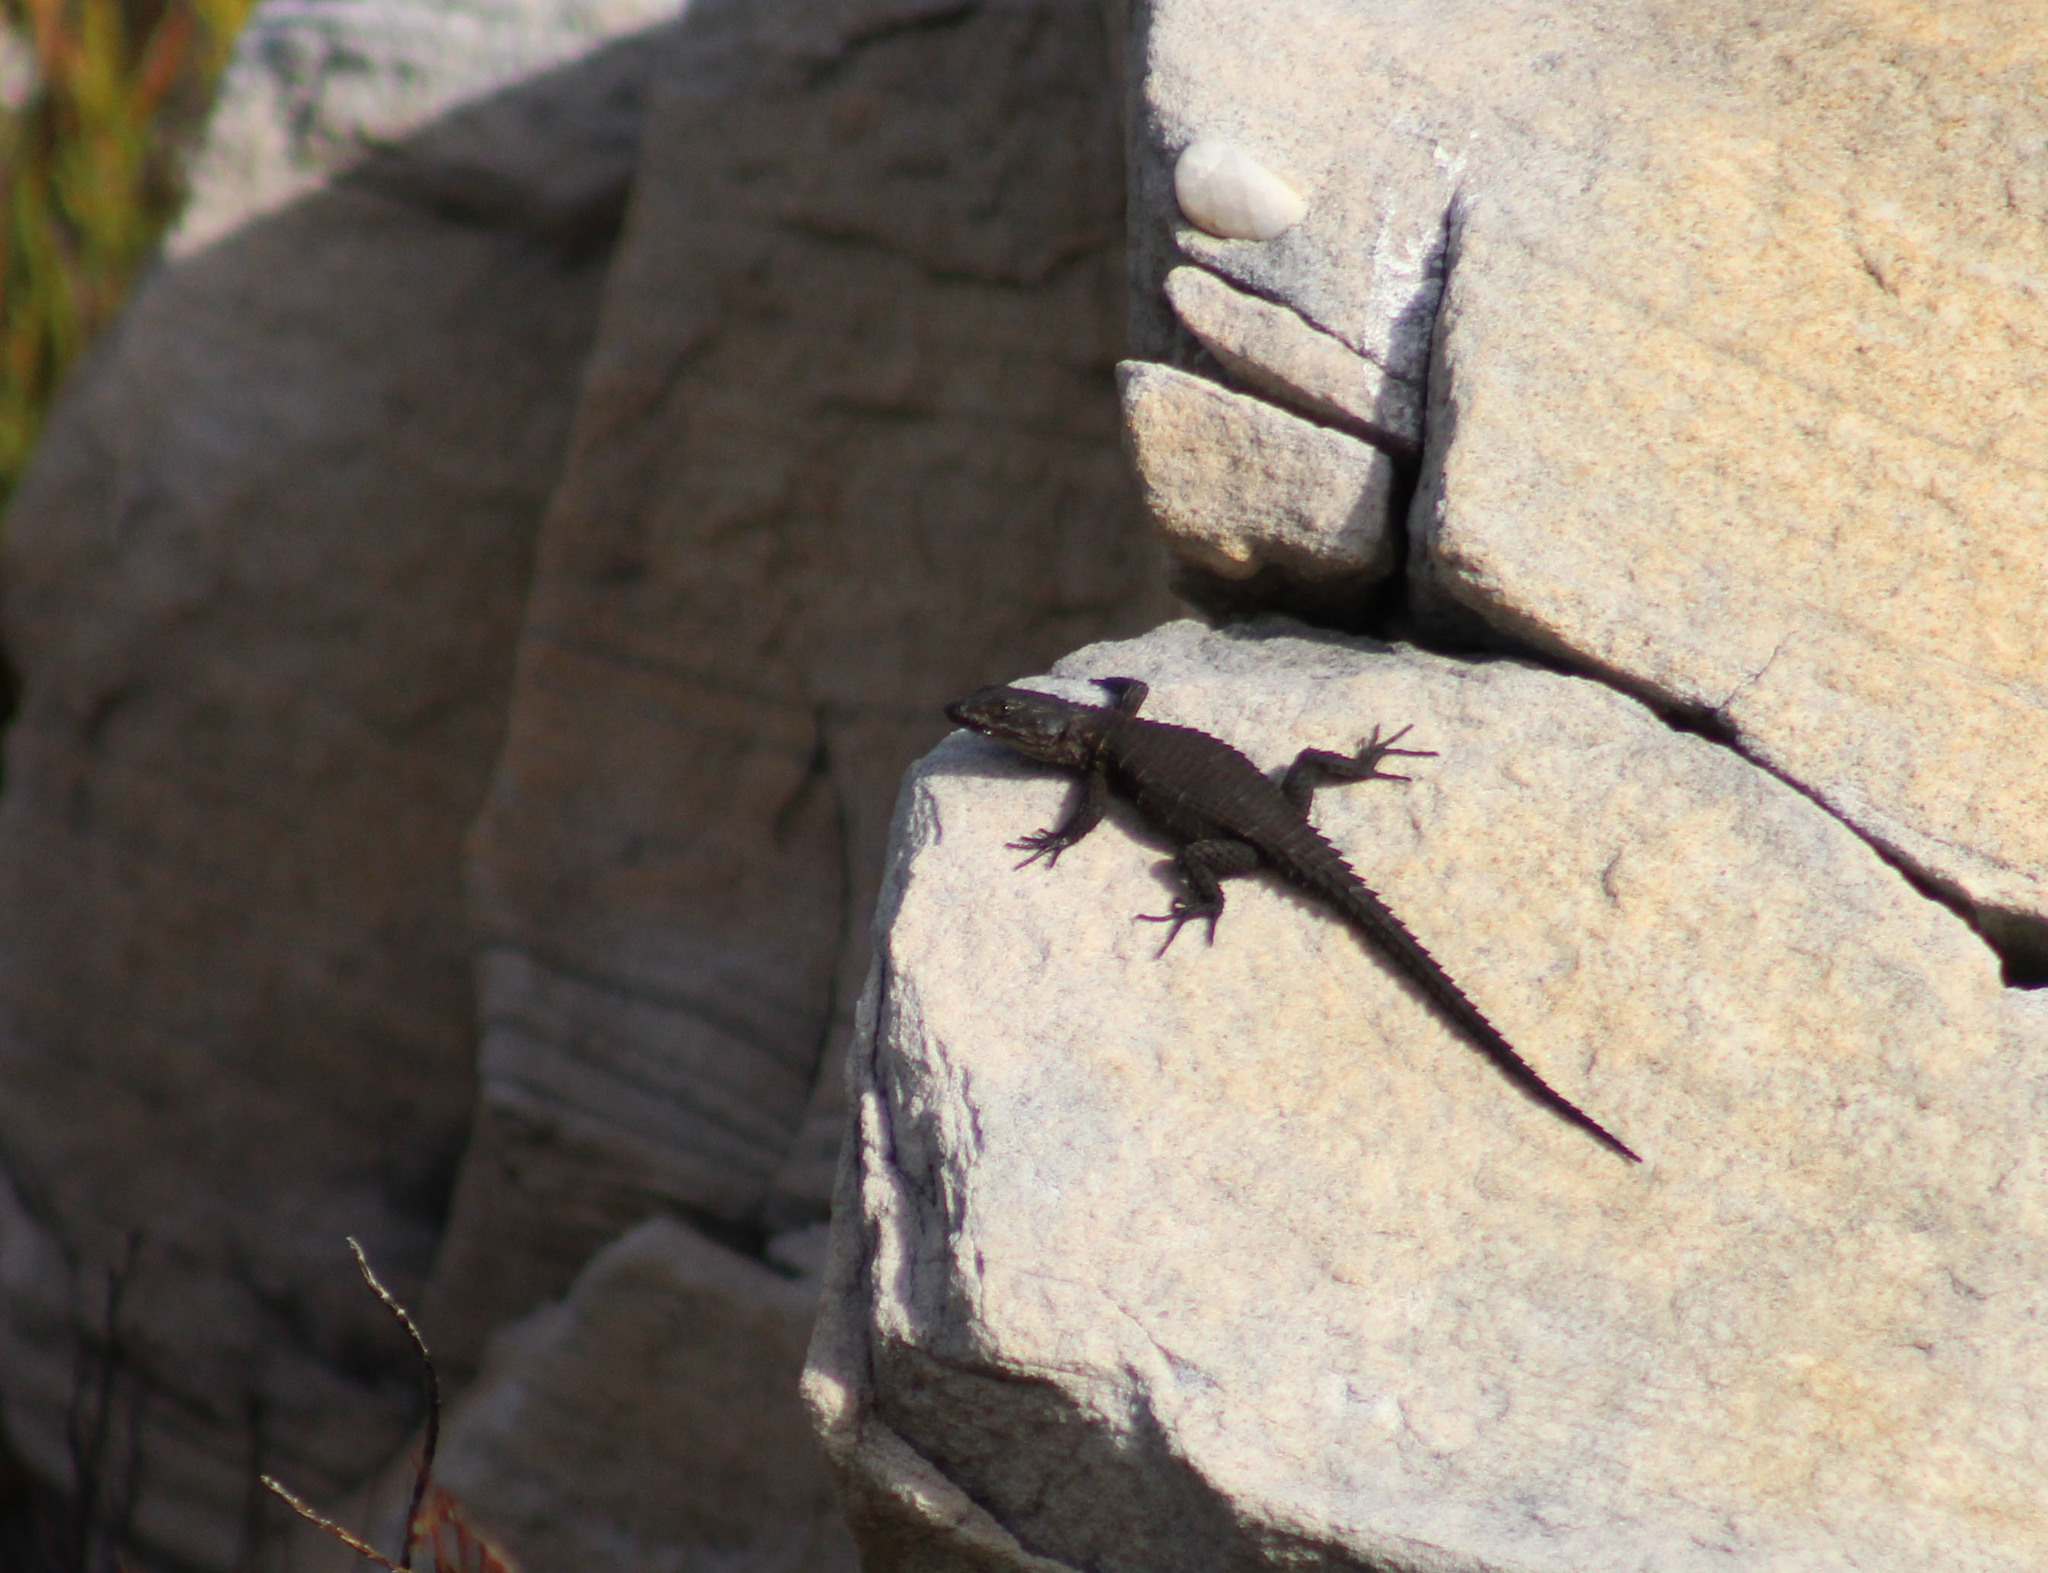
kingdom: Animalia
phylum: Chordata
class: Squamata
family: Cordylidae
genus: Cordylus
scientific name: Cordylus niger
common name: Black girdled lizard
